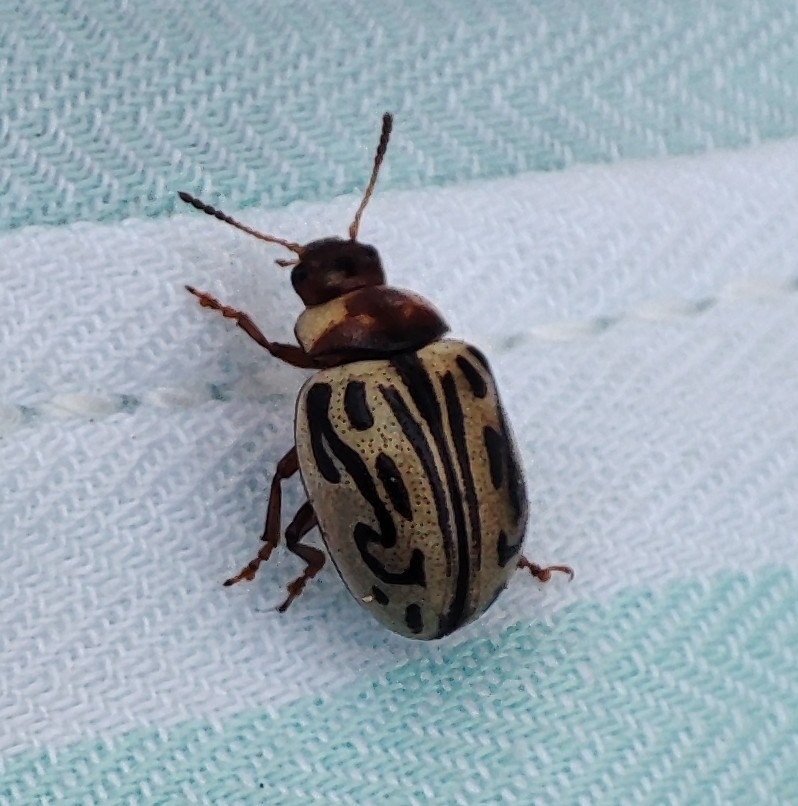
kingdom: Animalia
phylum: Arthropoda
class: Insecta
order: Coleoptera
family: Chrysomelidae
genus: Calligrapha
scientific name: Calligrapha
